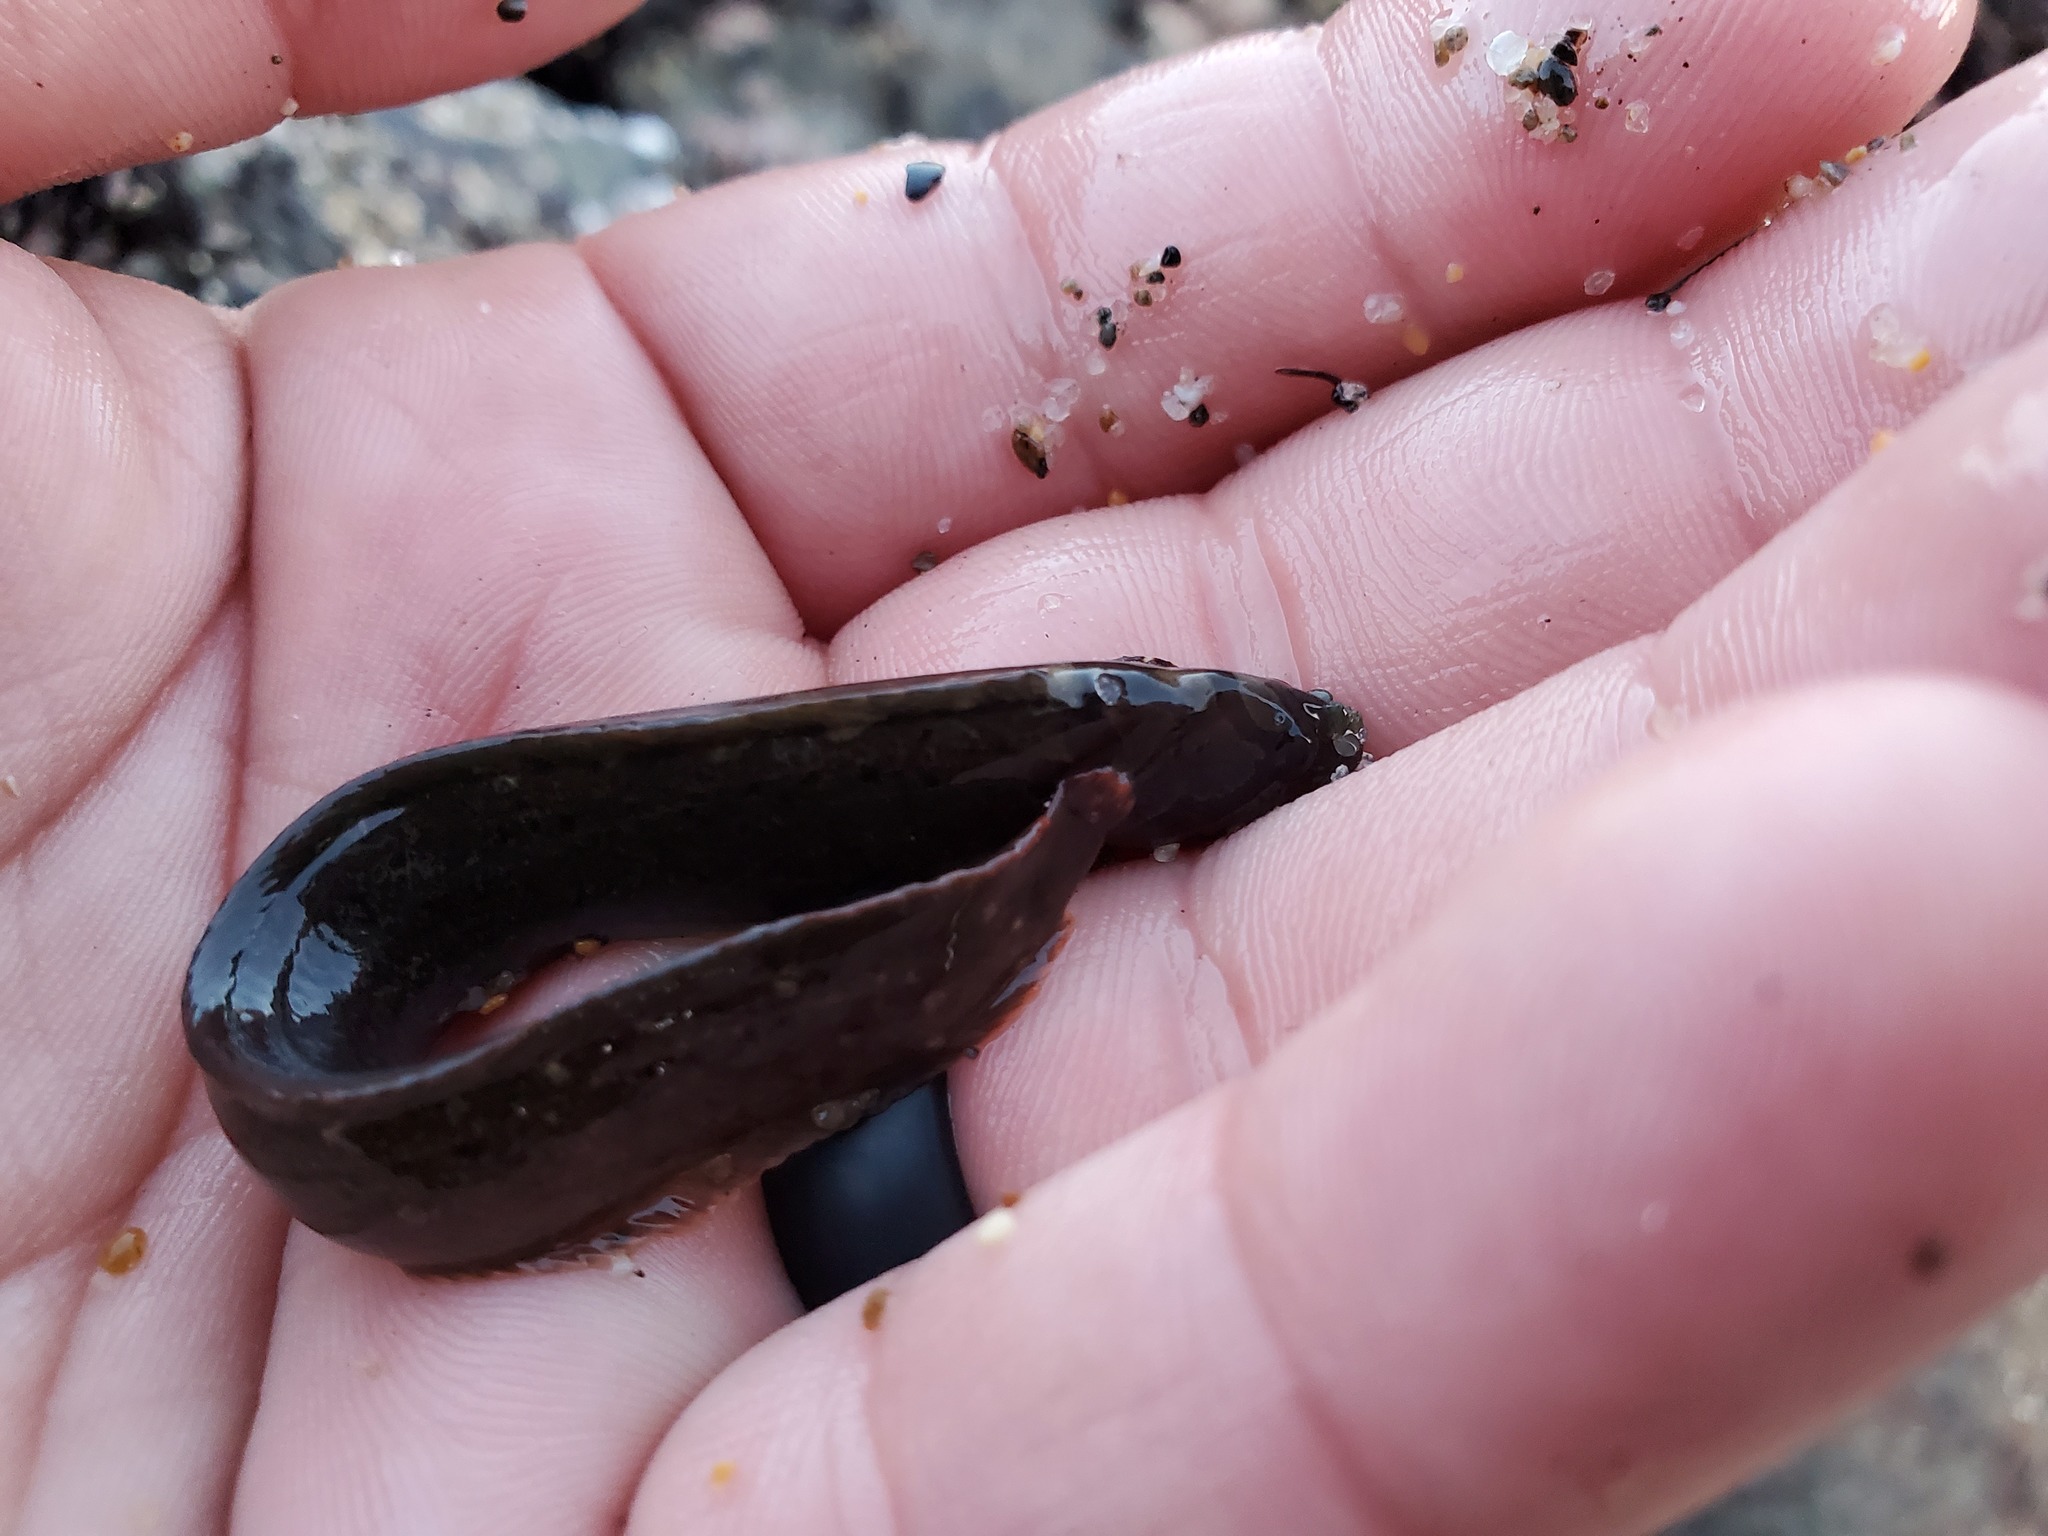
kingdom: Animalia
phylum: Chordata
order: Perciformes
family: Stichaeidae
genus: Xiphister
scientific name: Xiphister atropurpureus
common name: Black prickleback
